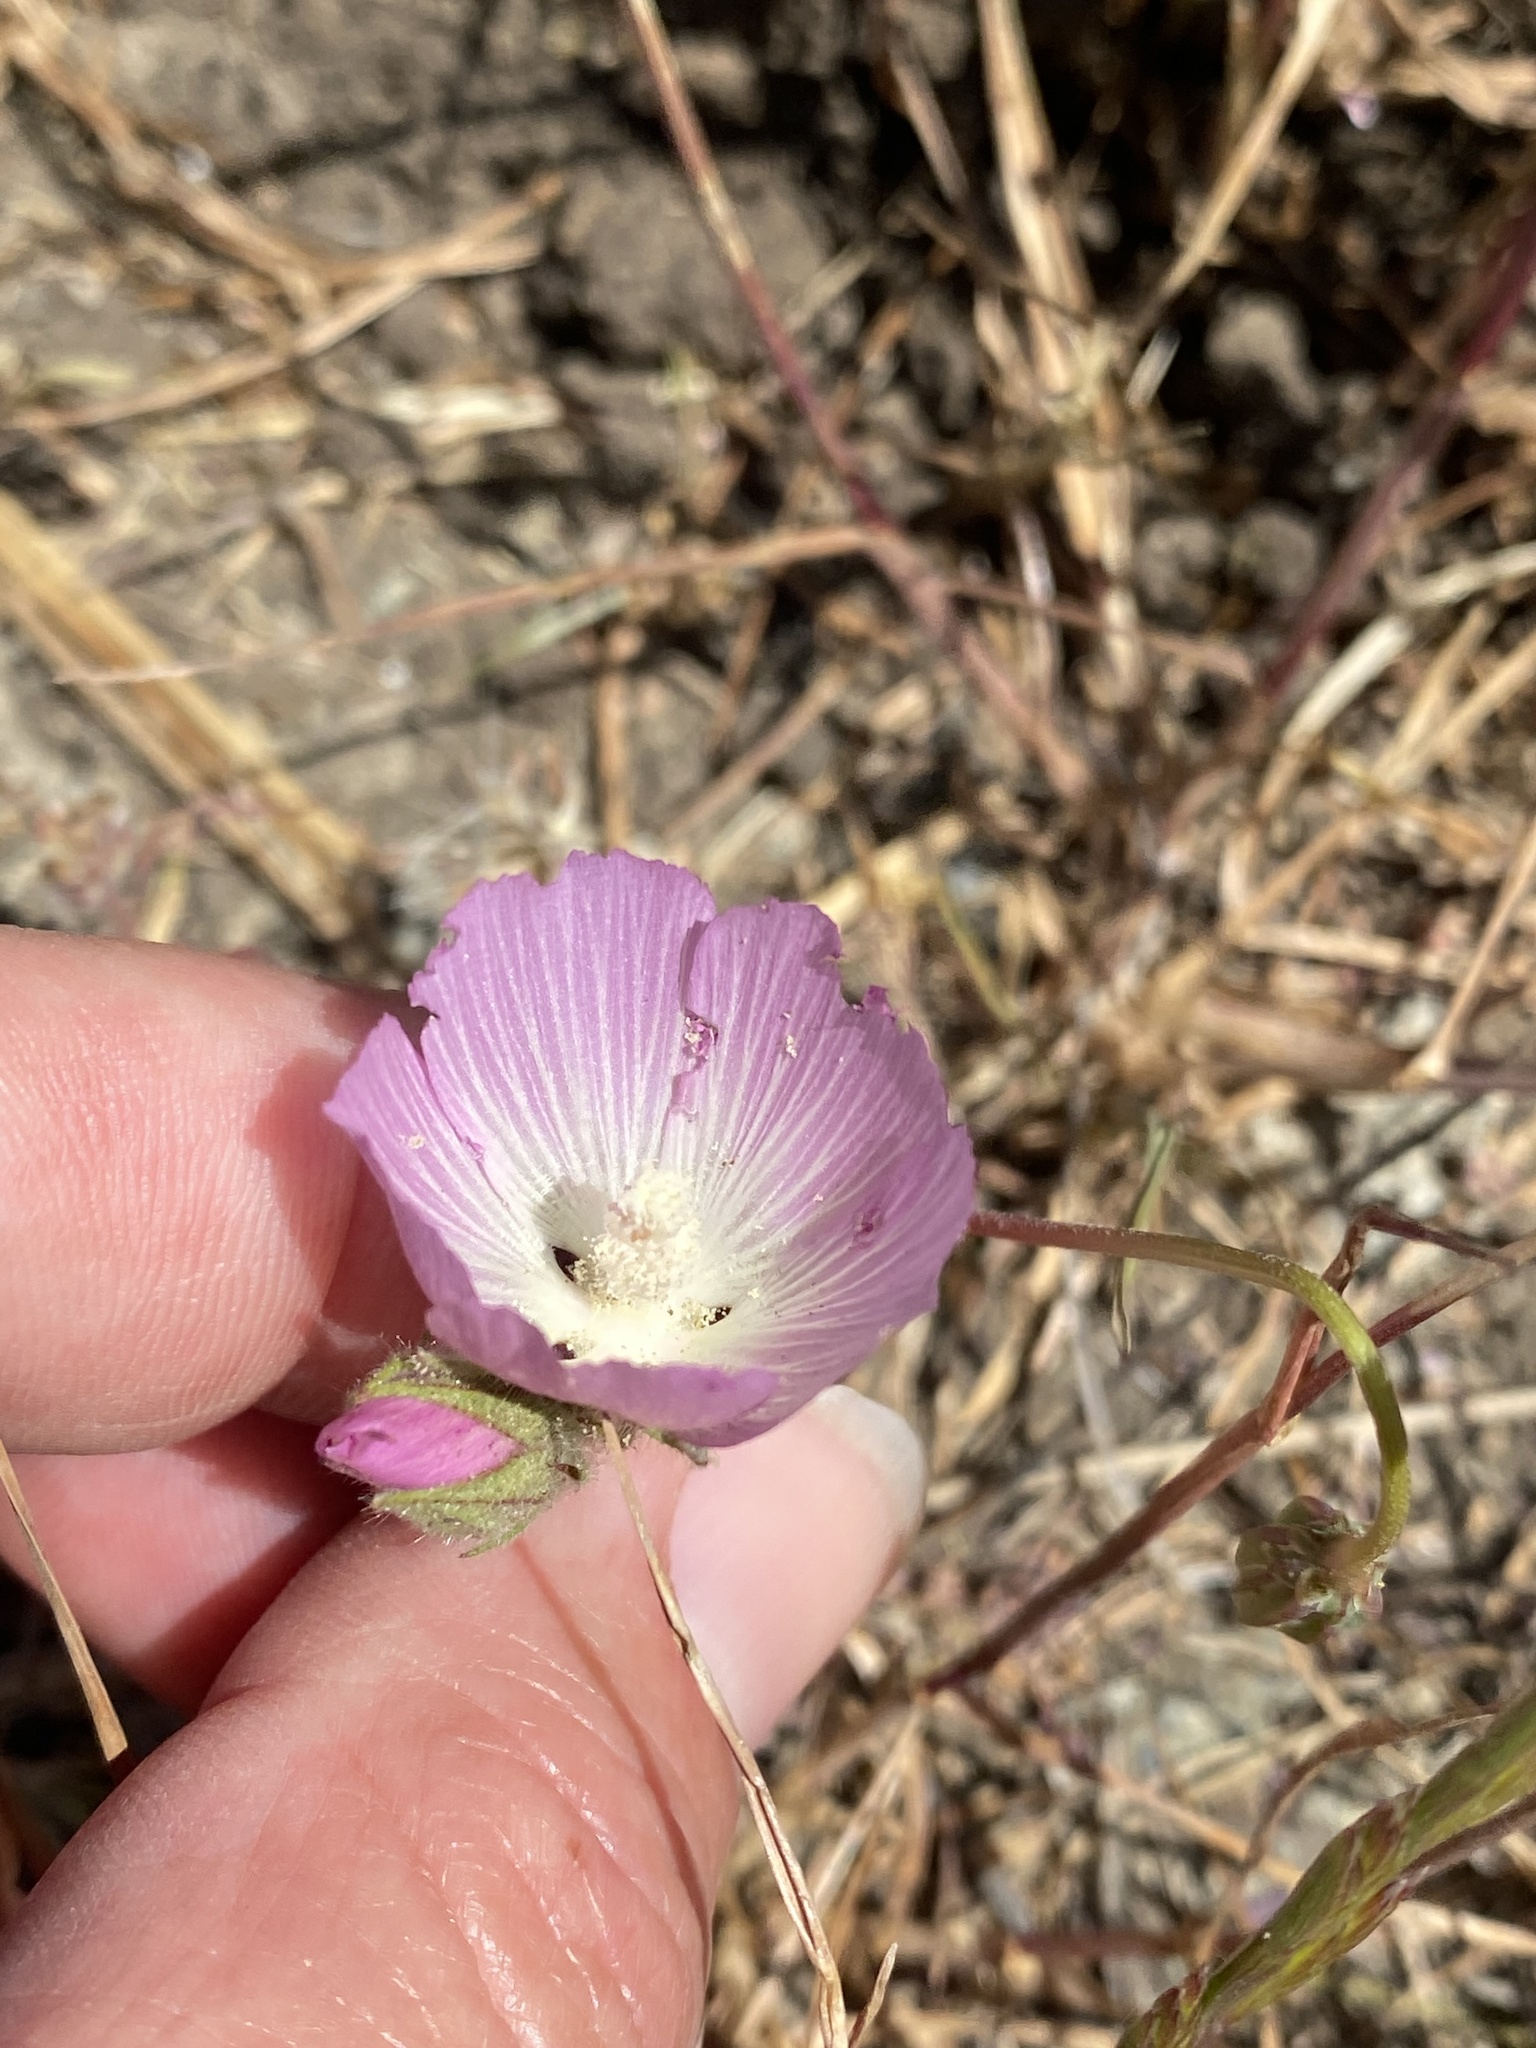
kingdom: Plantae
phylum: Tracheophyta
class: Magnoliopsida
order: Malvales
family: Malvaceae
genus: Sidalcea
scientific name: Sidalcea diploscypha
